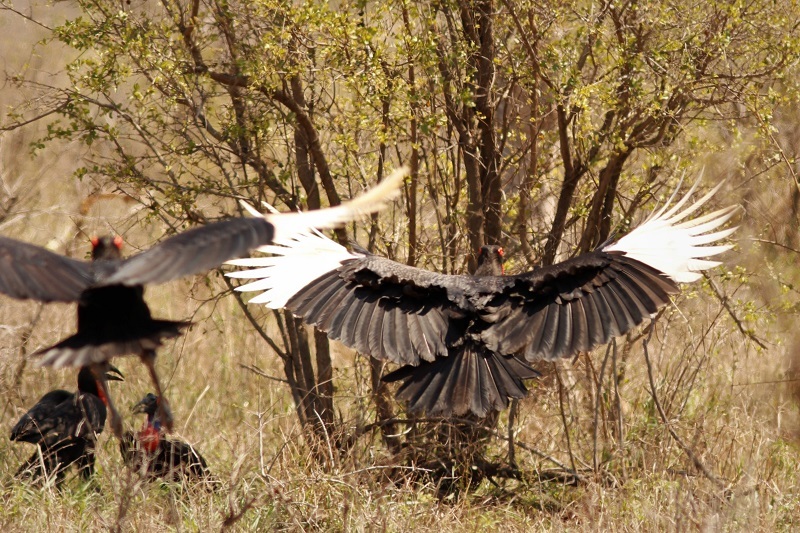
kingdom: Animalia
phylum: Chordata
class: Aves
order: Bucerotiformes
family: Bucorvidae
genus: Bucorvus
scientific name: Bucorvus leadbeateri
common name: Southern ground-hornbill
